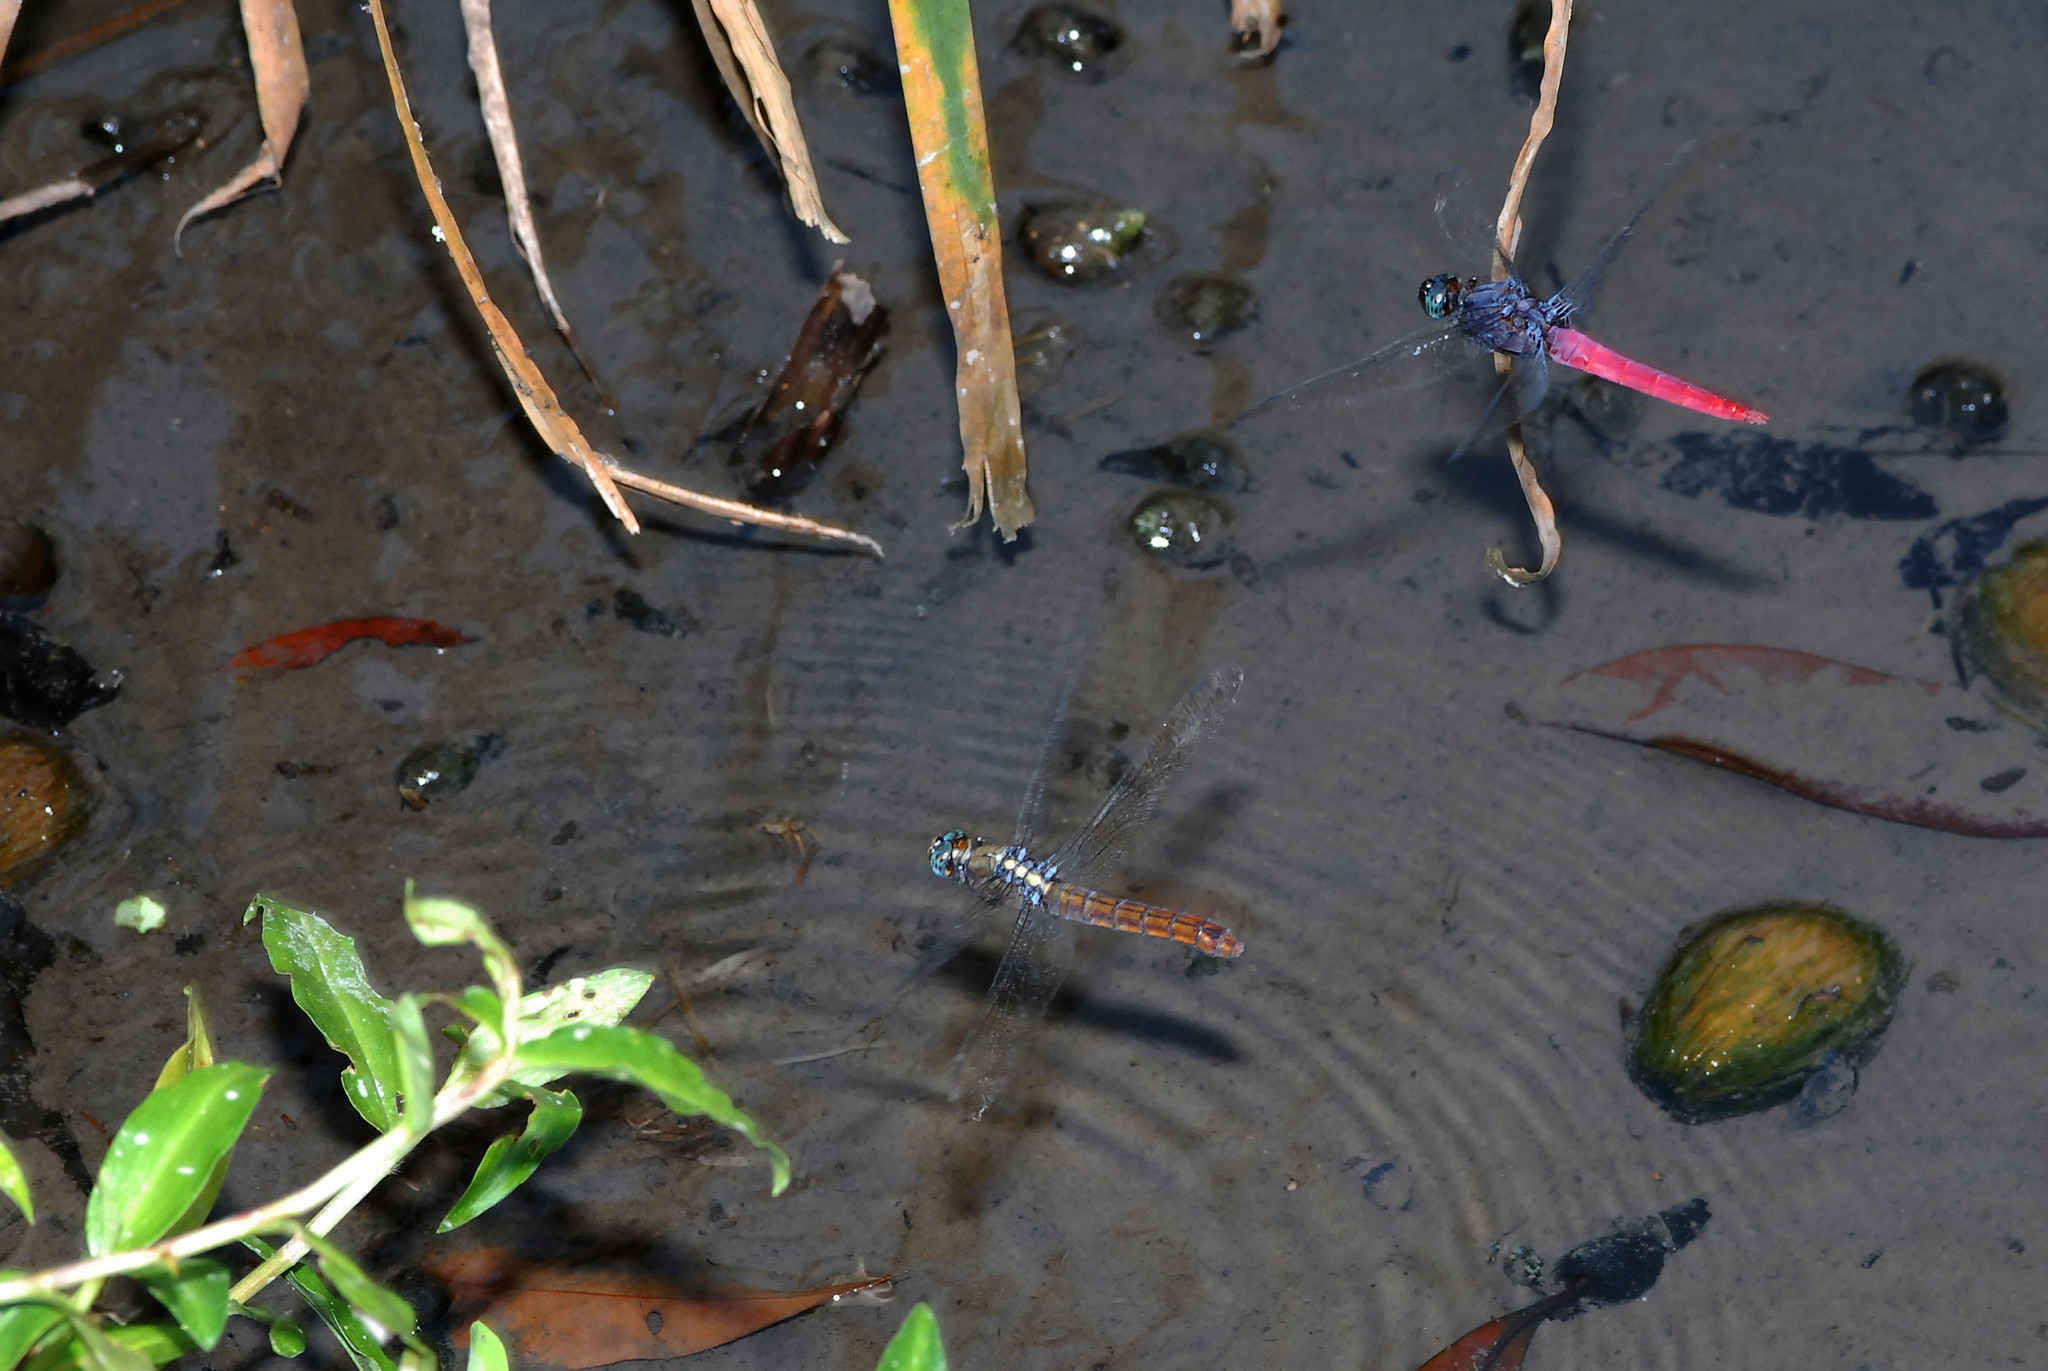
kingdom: Animalia
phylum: Arthropoda
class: Insecta
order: Odonata
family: Libellulidae
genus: Orthetrum
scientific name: Orthetrum pruinosum
